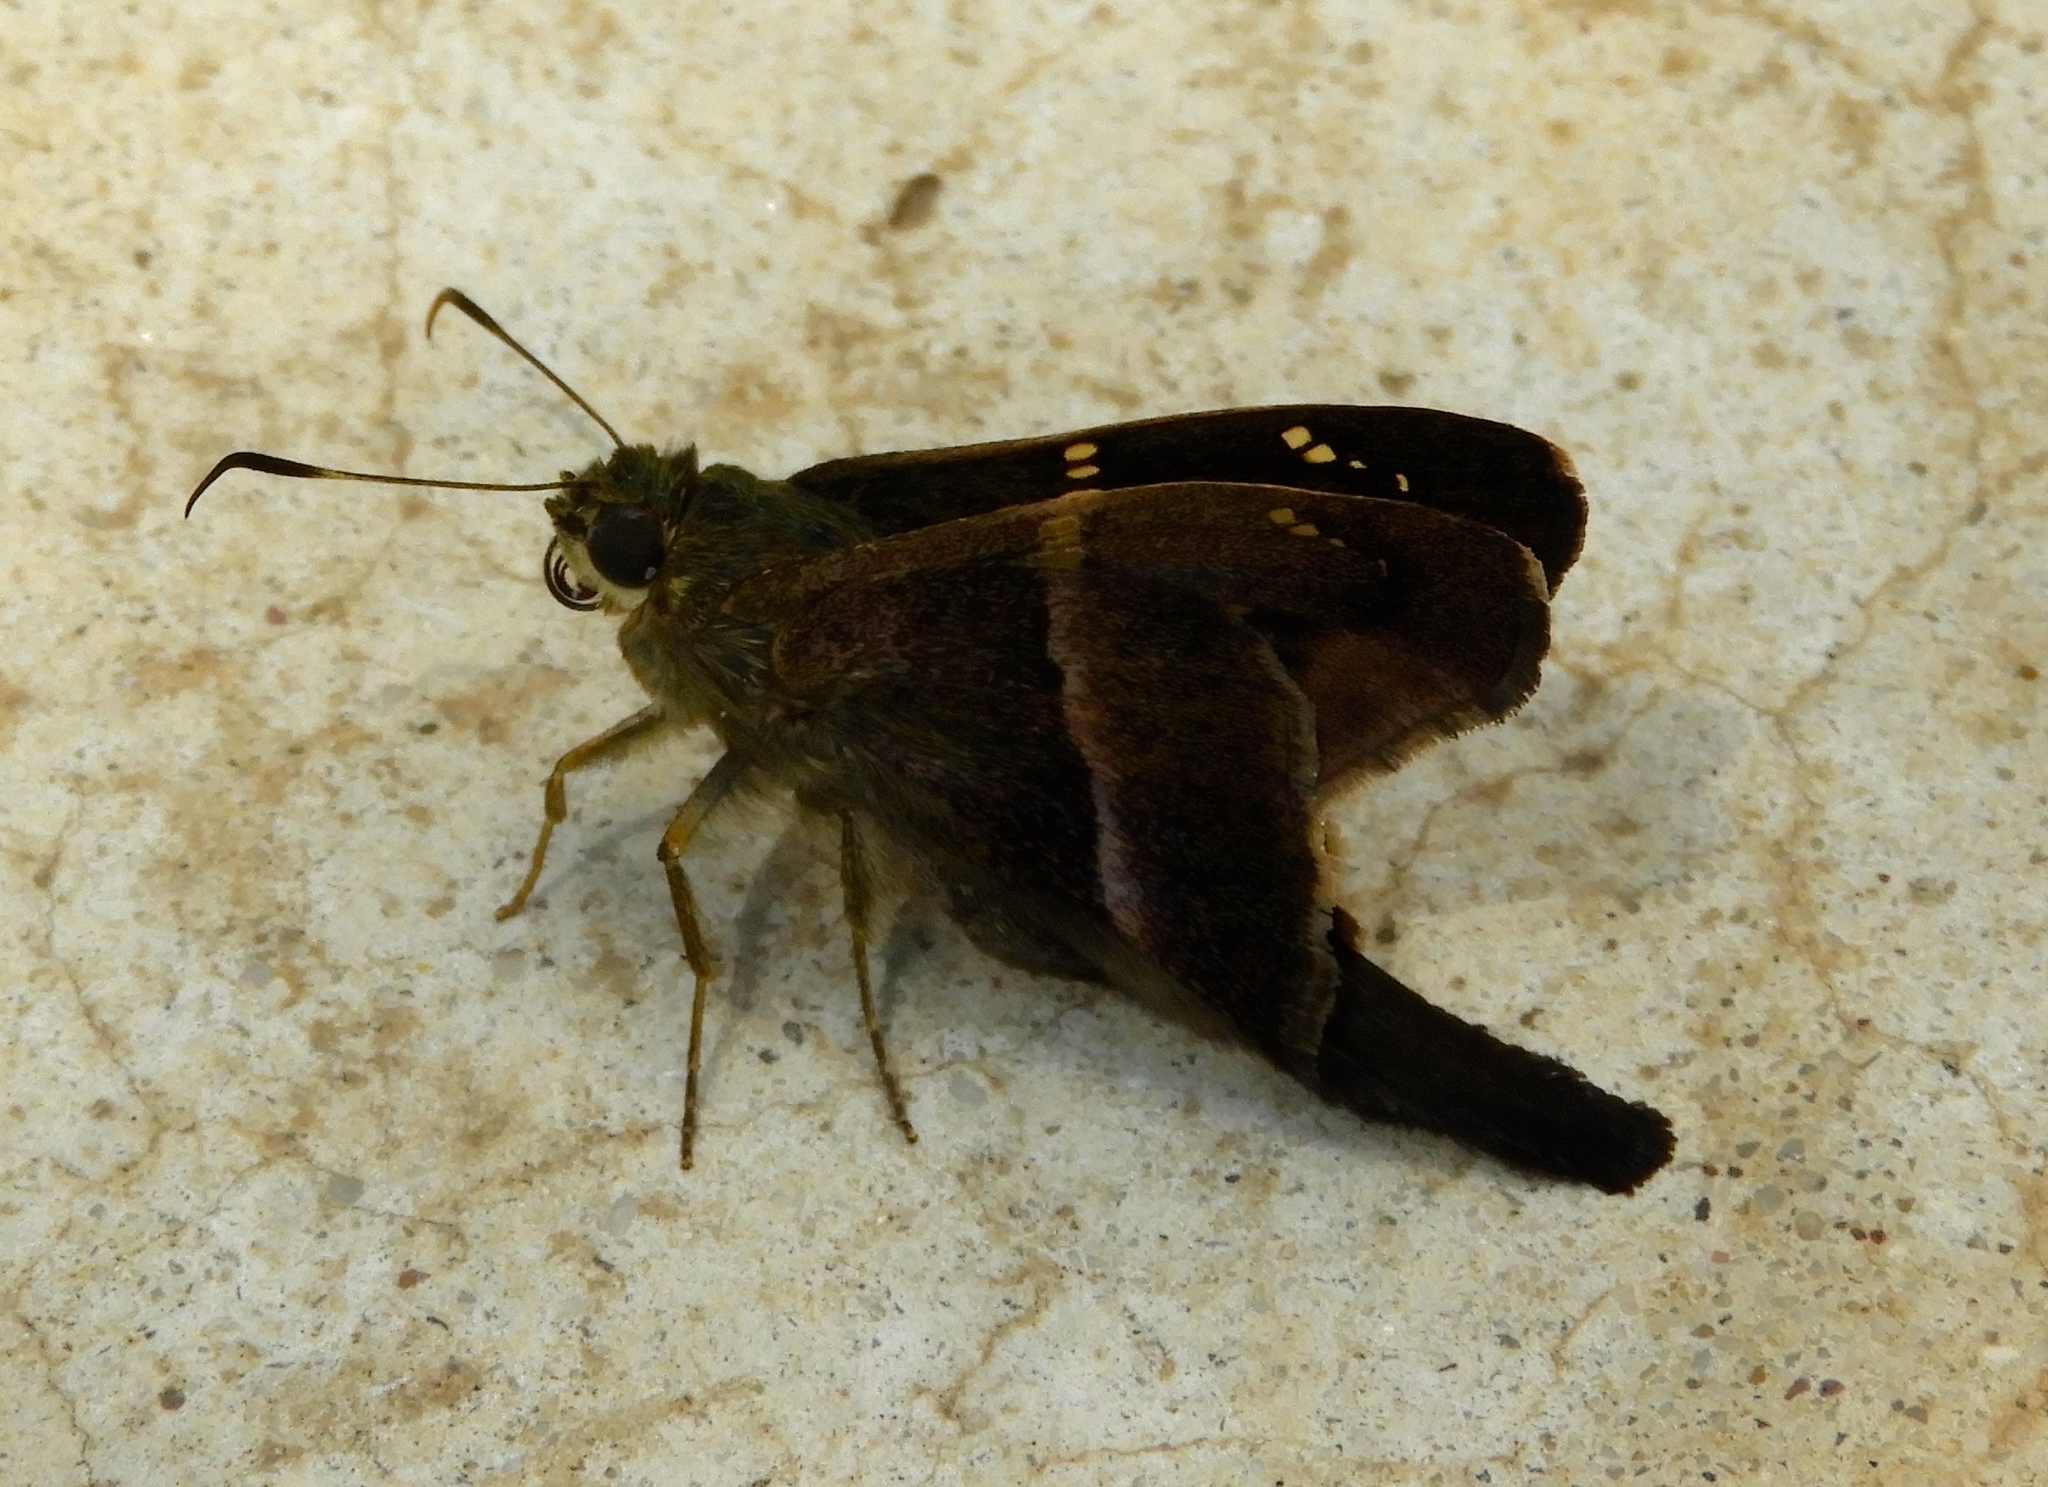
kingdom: Animalia
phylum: Arthropoda
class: Insecta
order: Lepidoptera
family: Hesperiidae
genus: Aguna
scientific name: Aguna metophis
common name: Tailed aguna
